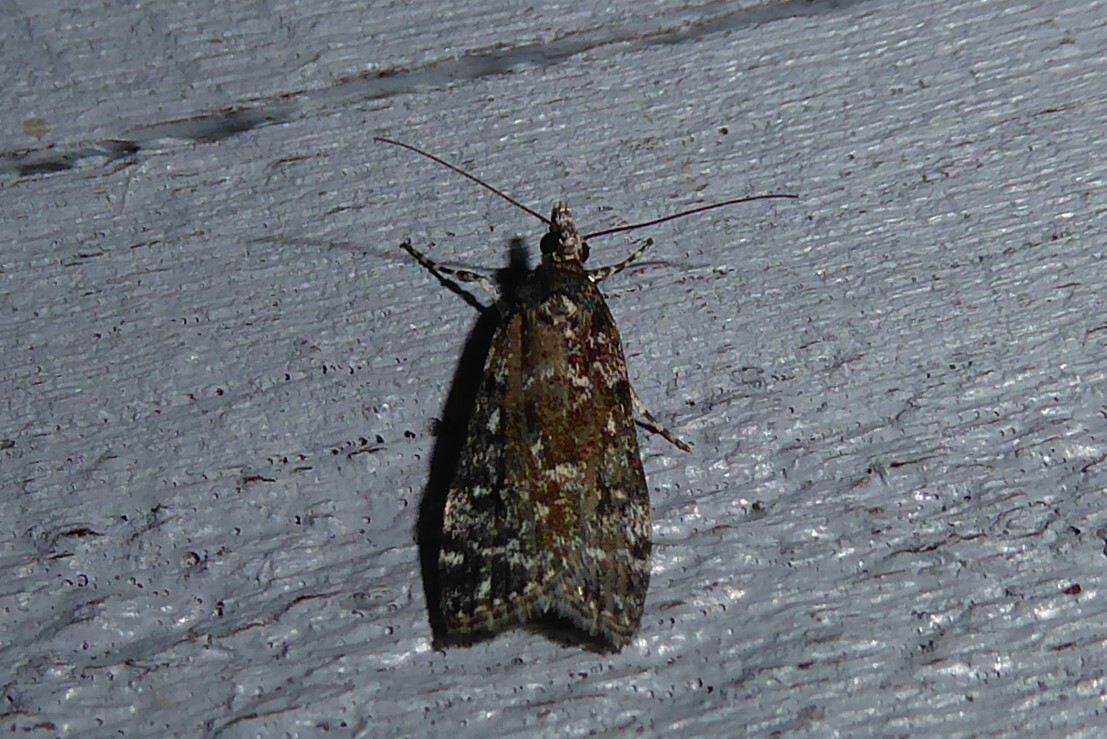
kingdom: Animalia
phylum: Arthropoda
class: Insecta
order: Lepidoptera
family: Crambidae
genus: Eudonia
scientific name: Eudonia philerga
